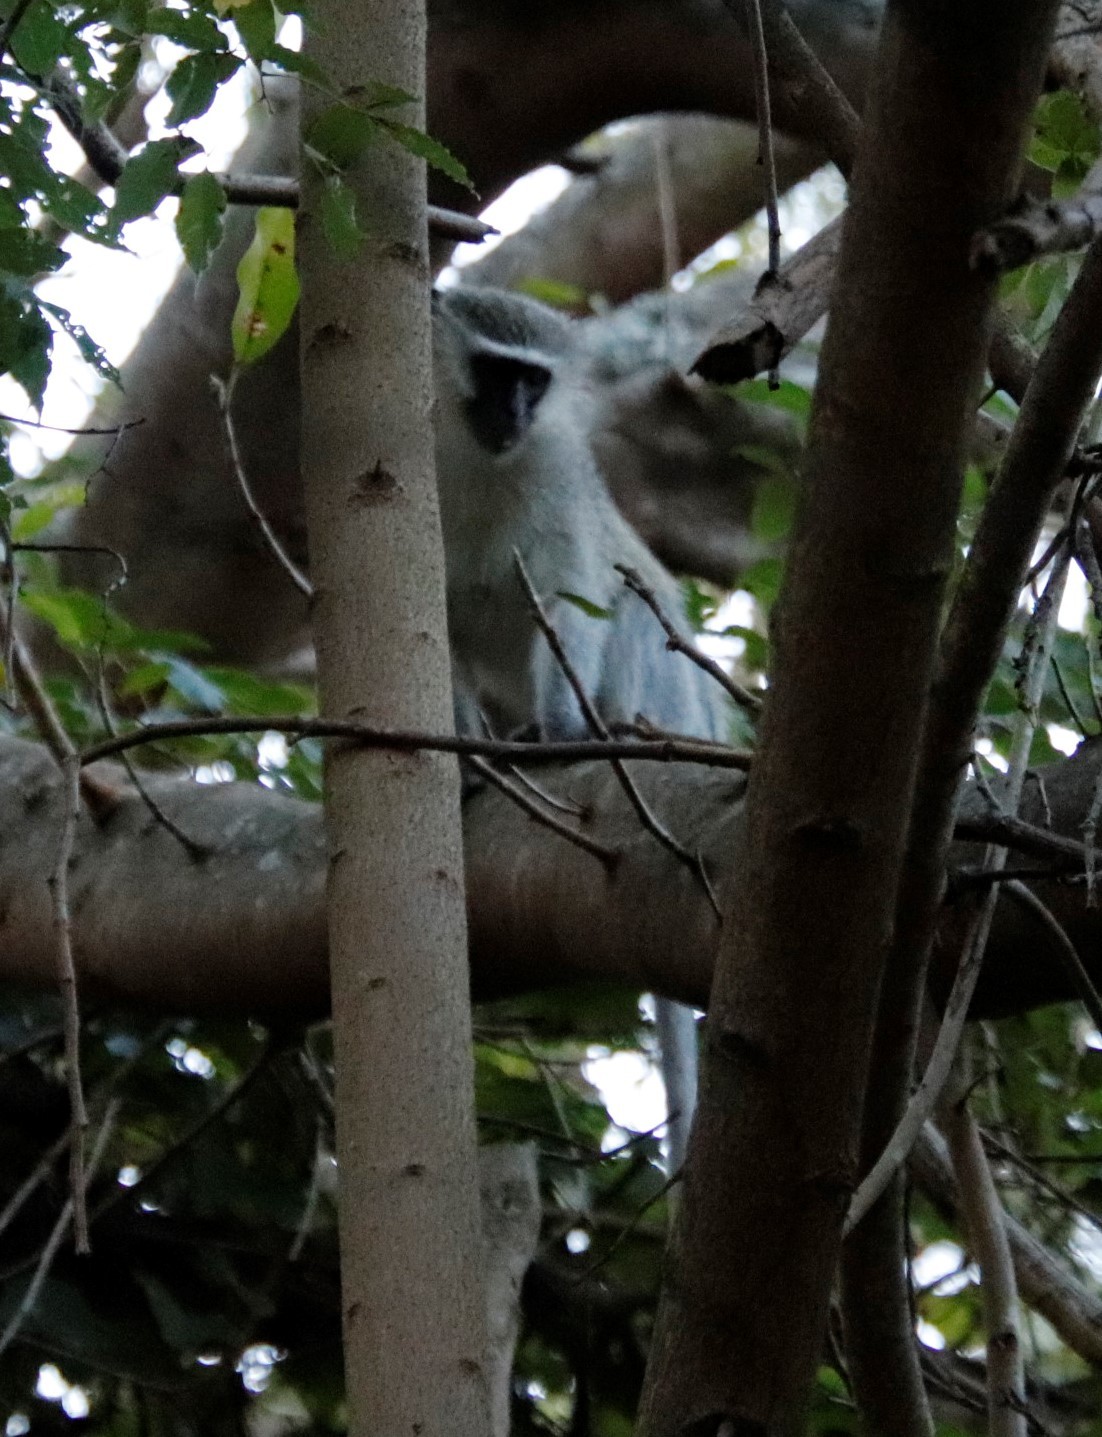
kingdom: Animalia
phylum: Chordata
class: Mammalia
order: Primates
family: Cercopithecidae
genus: Chlorocebus
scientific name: Chlorocebus pygerythrus
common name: Vervet monkey
